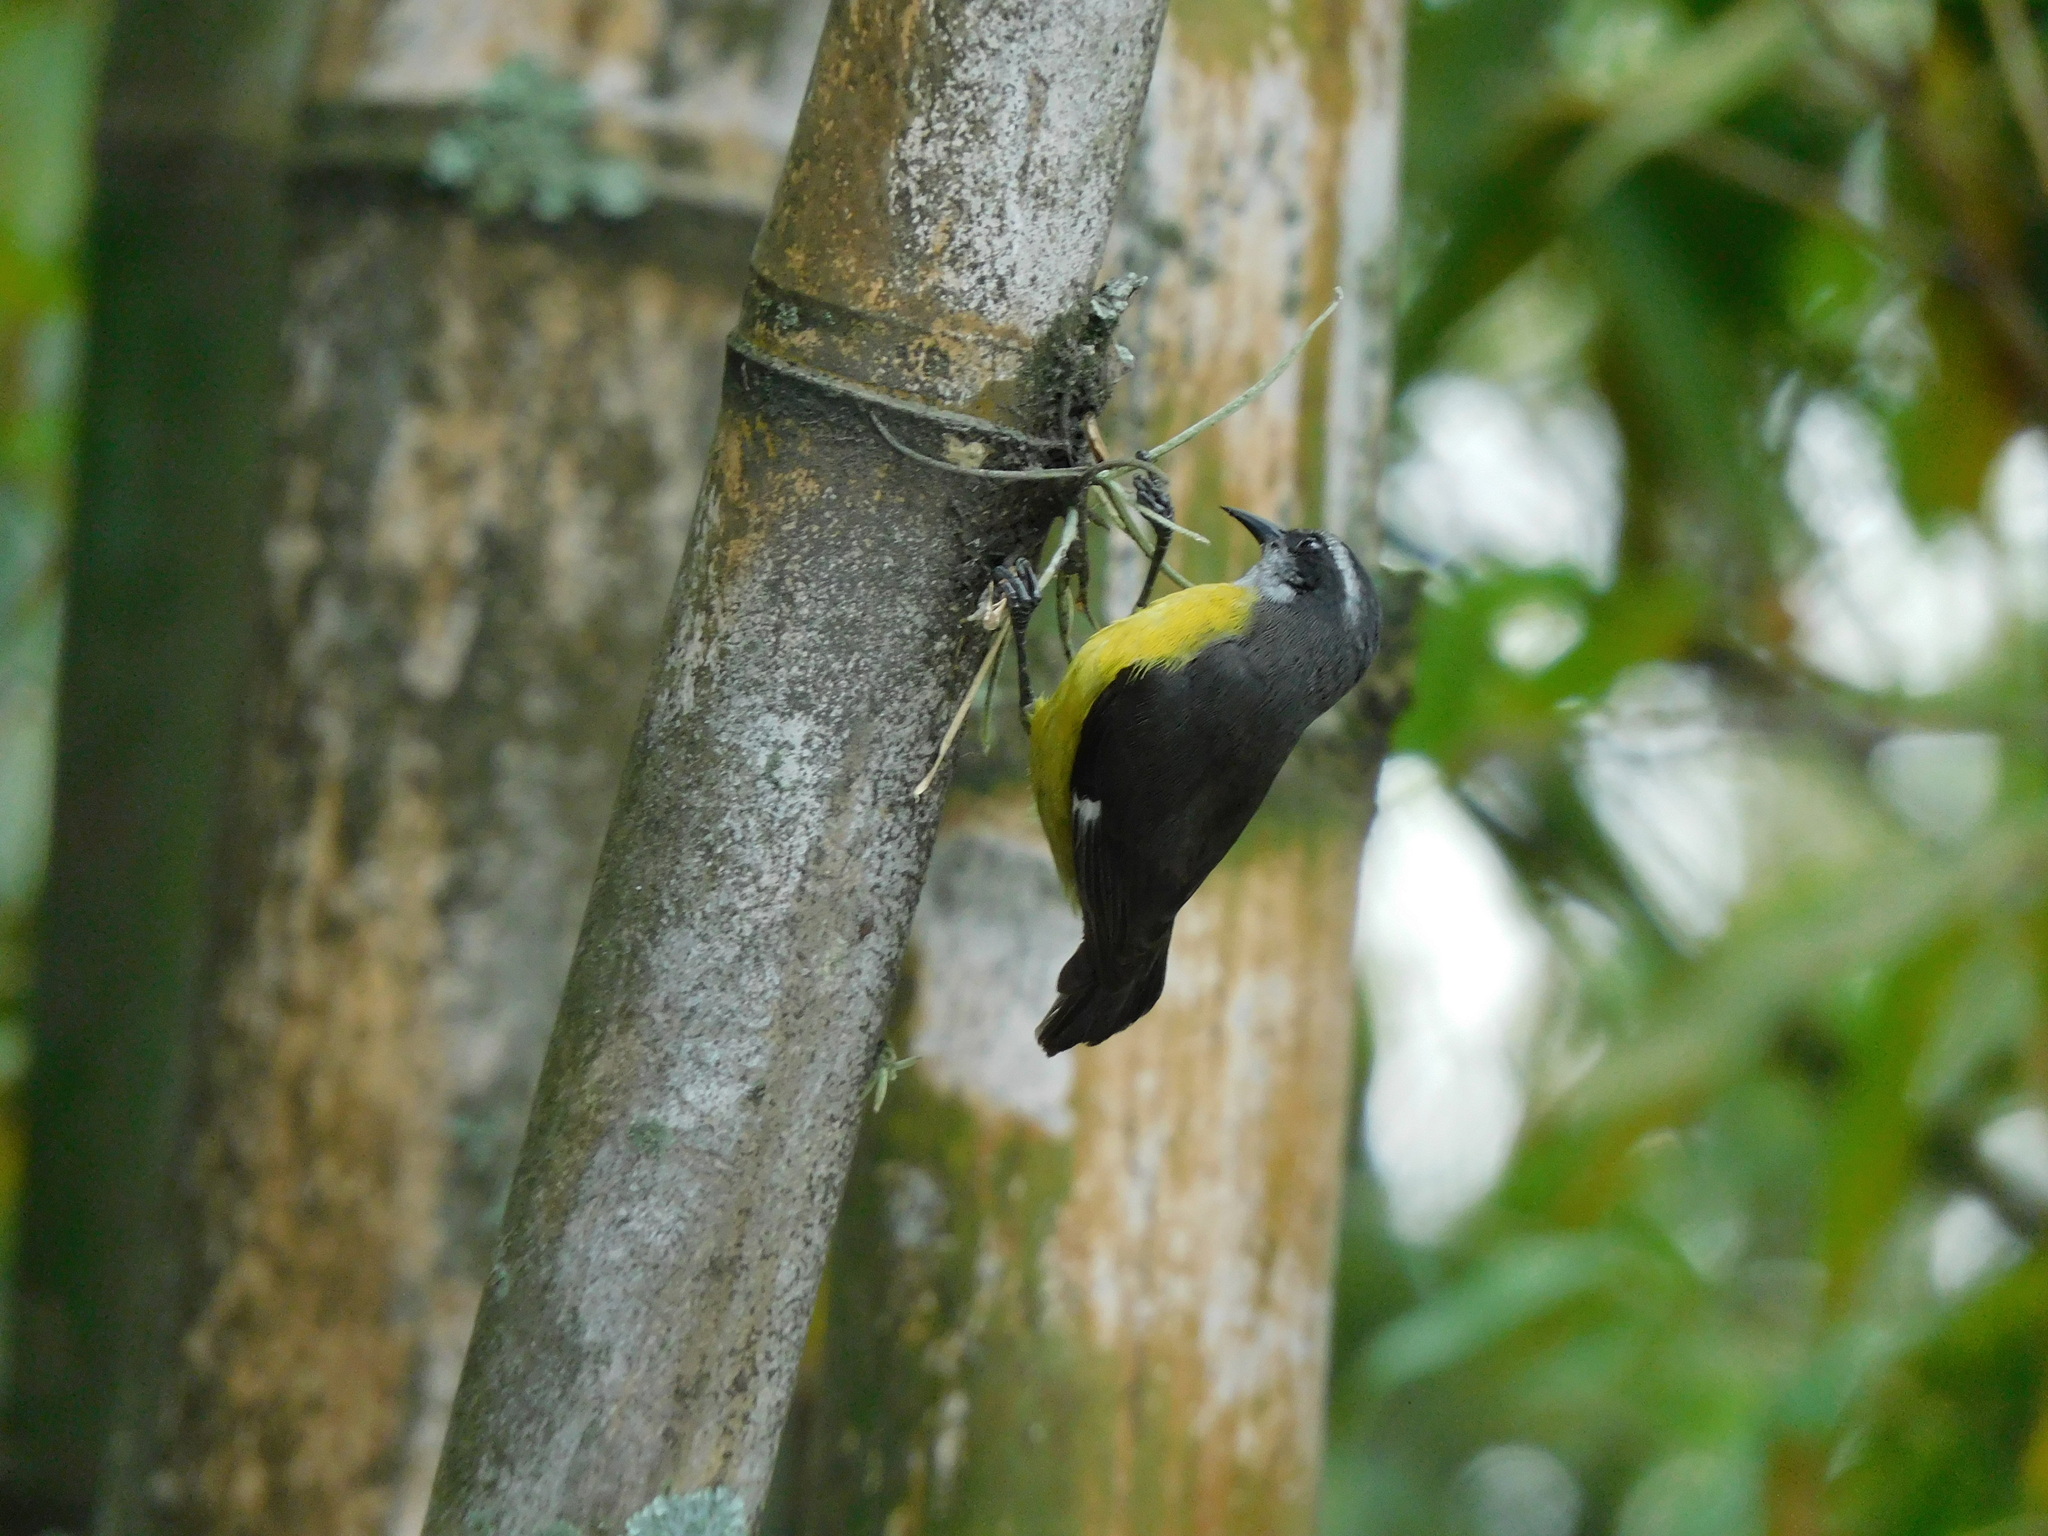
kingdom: Animalia
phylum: Chordata
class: Aves
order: Passeriformes
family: Thraupidae
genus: Coereba
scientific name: Coereba flaveola
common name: Bananaquit
